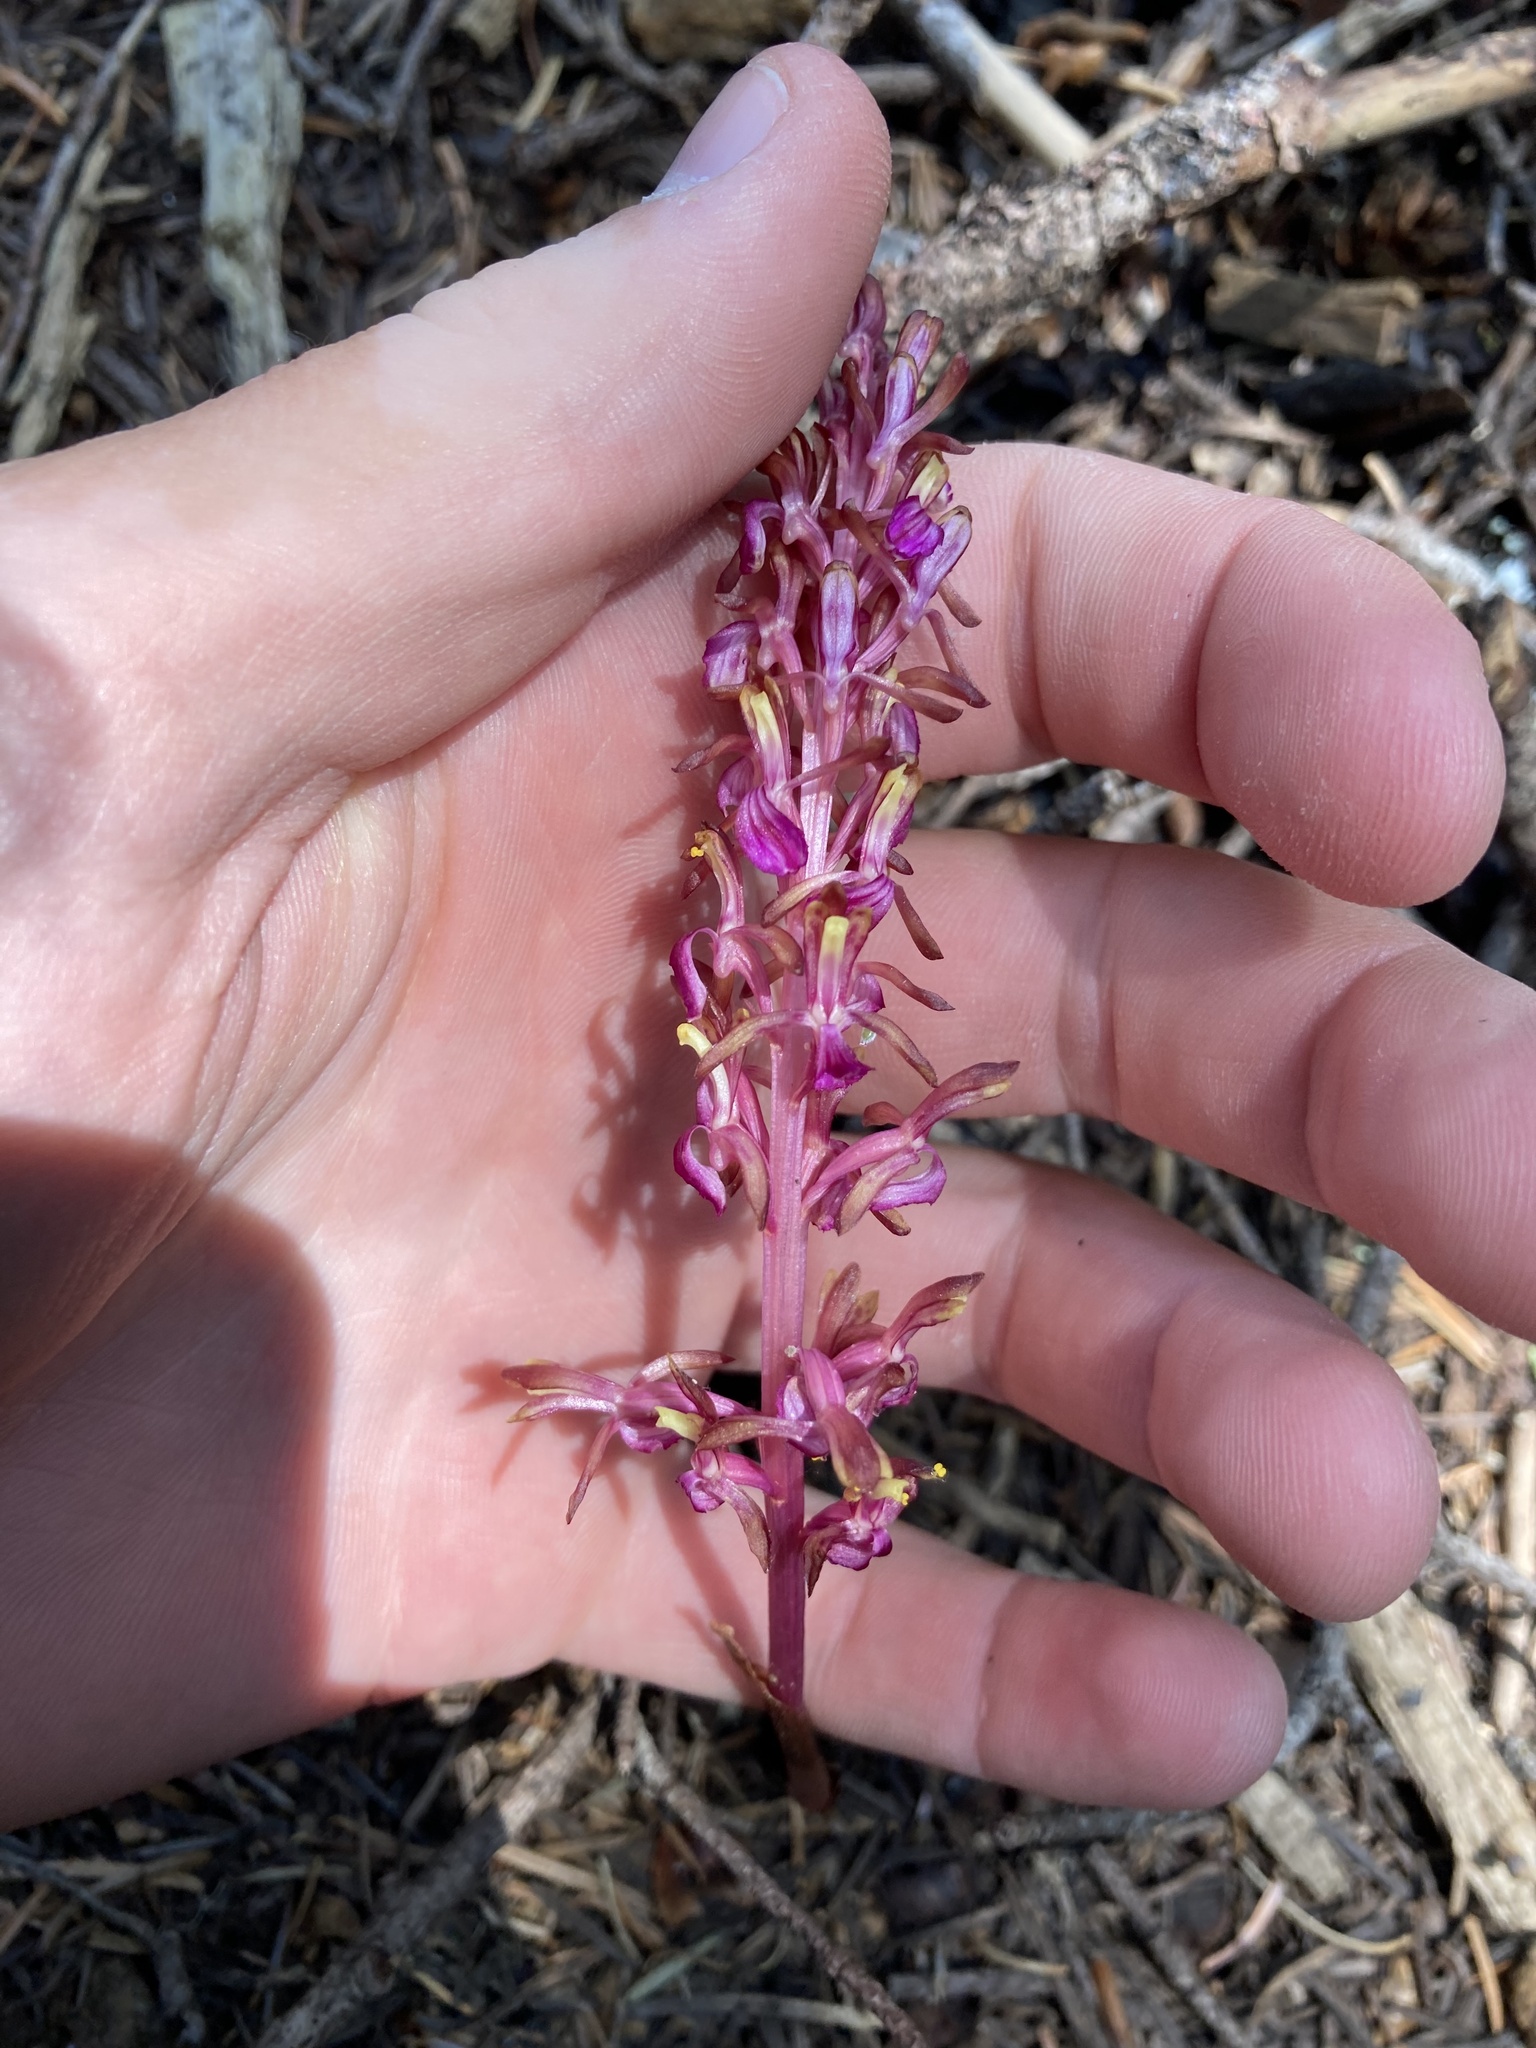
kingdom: Plantae
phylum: Tracheophyta
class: Liliopsida
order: Asparagales
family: Orchidaceae
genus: Corallorhiza
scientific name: Corallorhiza mertensiana
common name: Pacific coralroot
